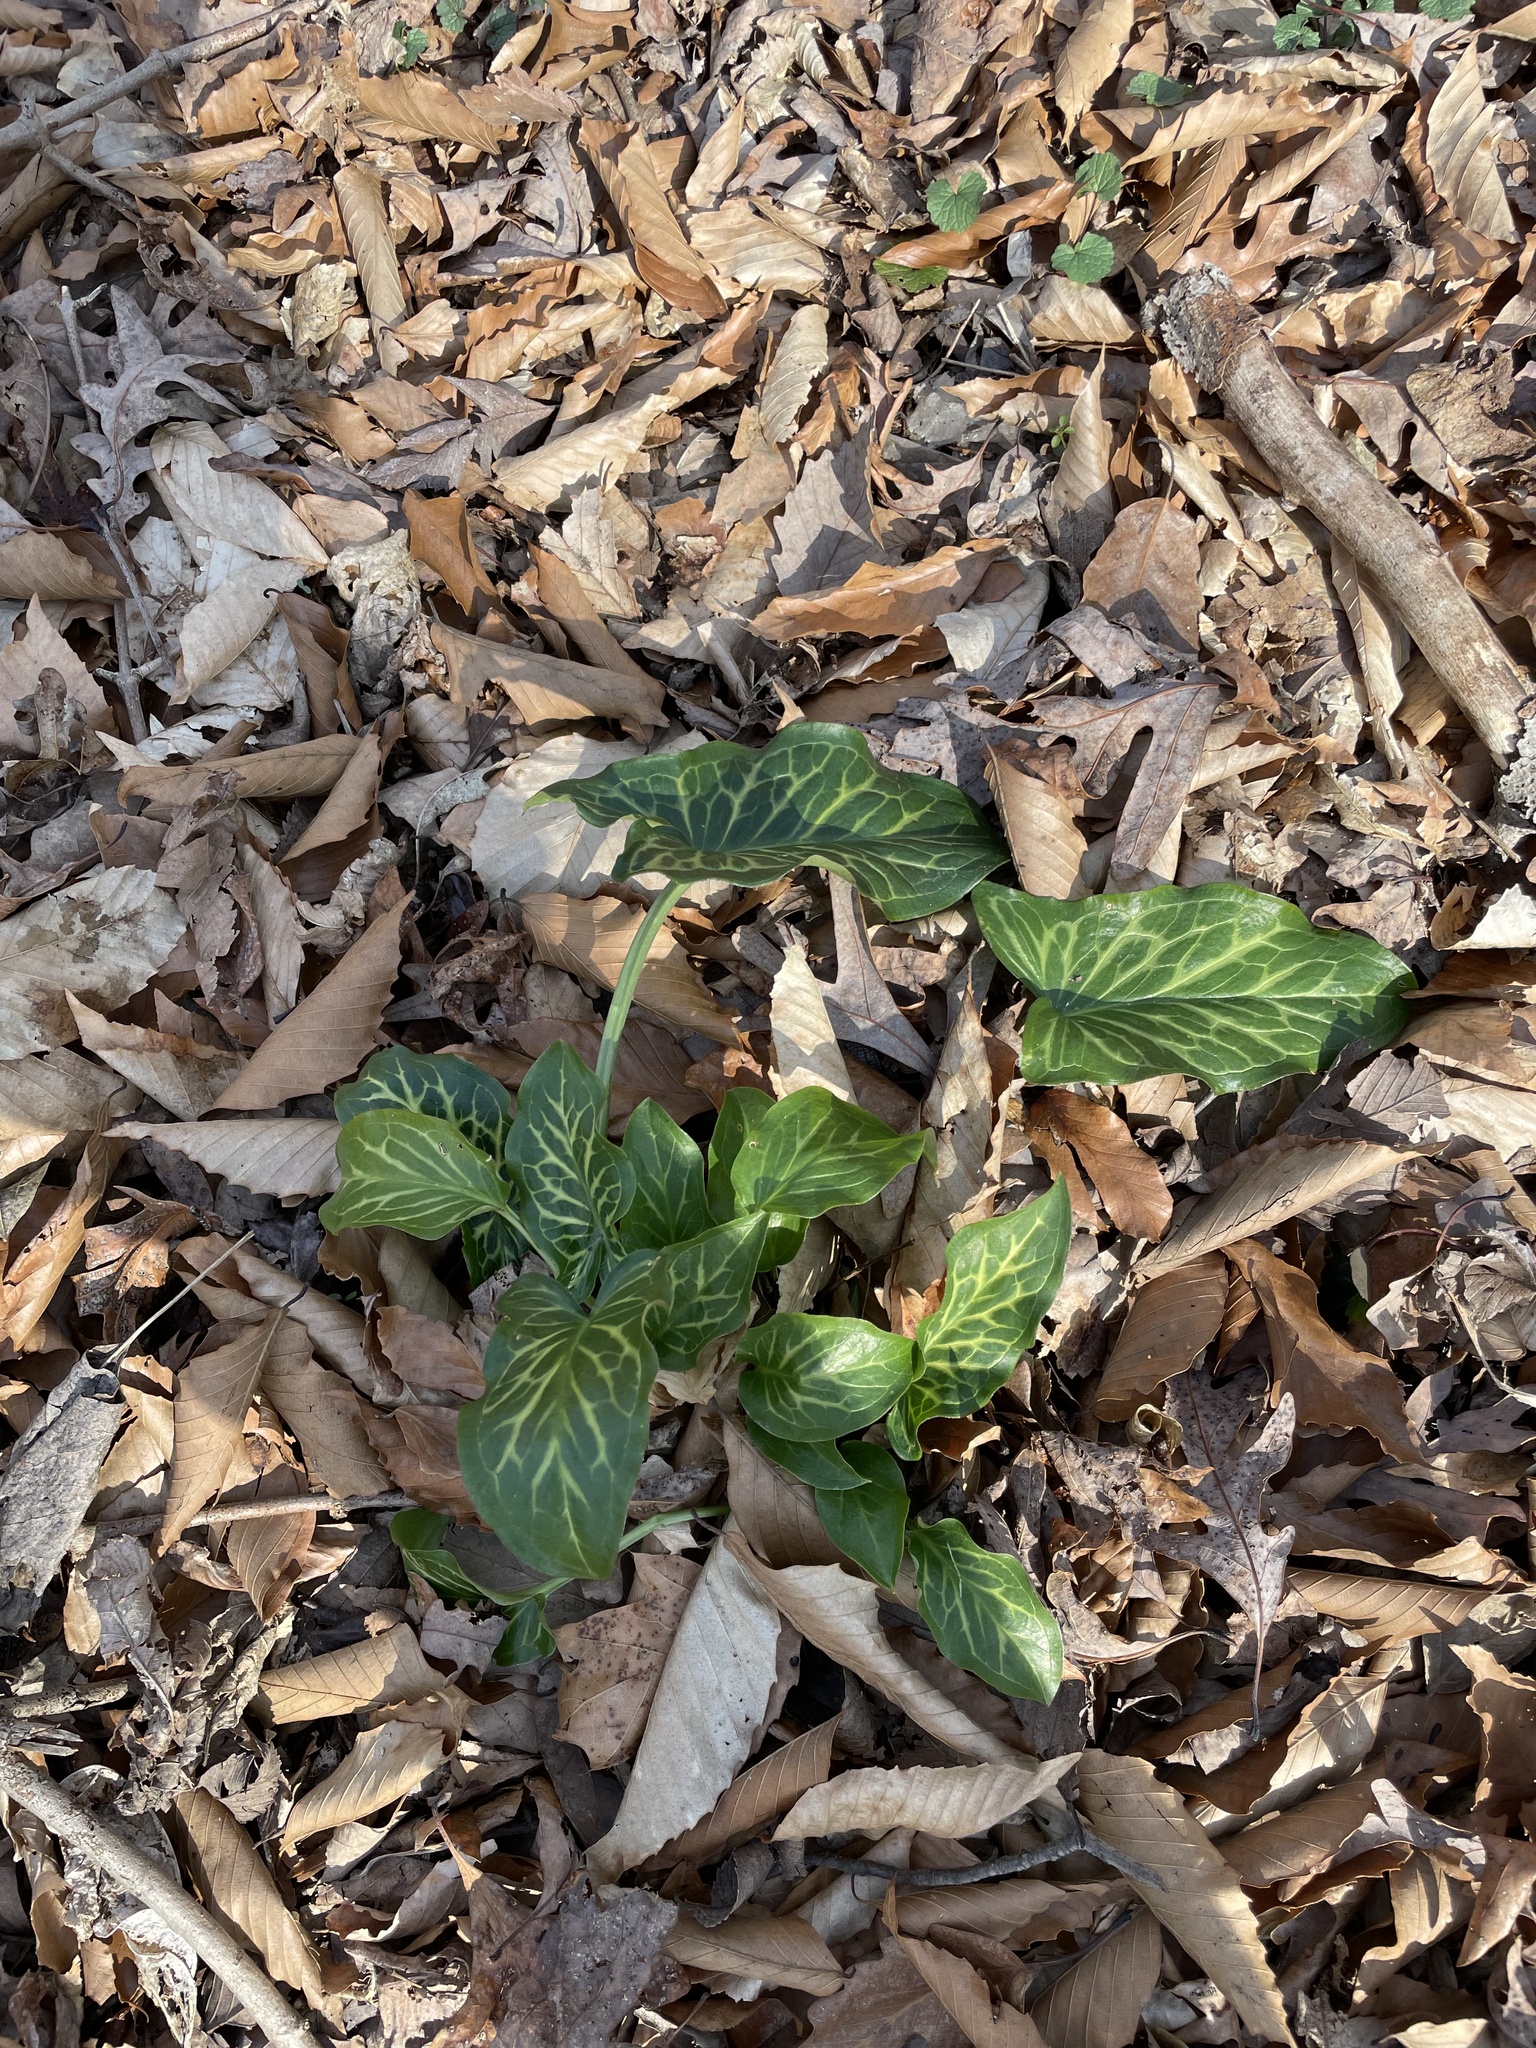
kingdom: Plantae
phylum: Tracheophyta
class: Liliopsida
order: Alismatales
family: Araceae
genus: Arum
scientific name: Arum italicum
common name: Italian lords-and-ladies
